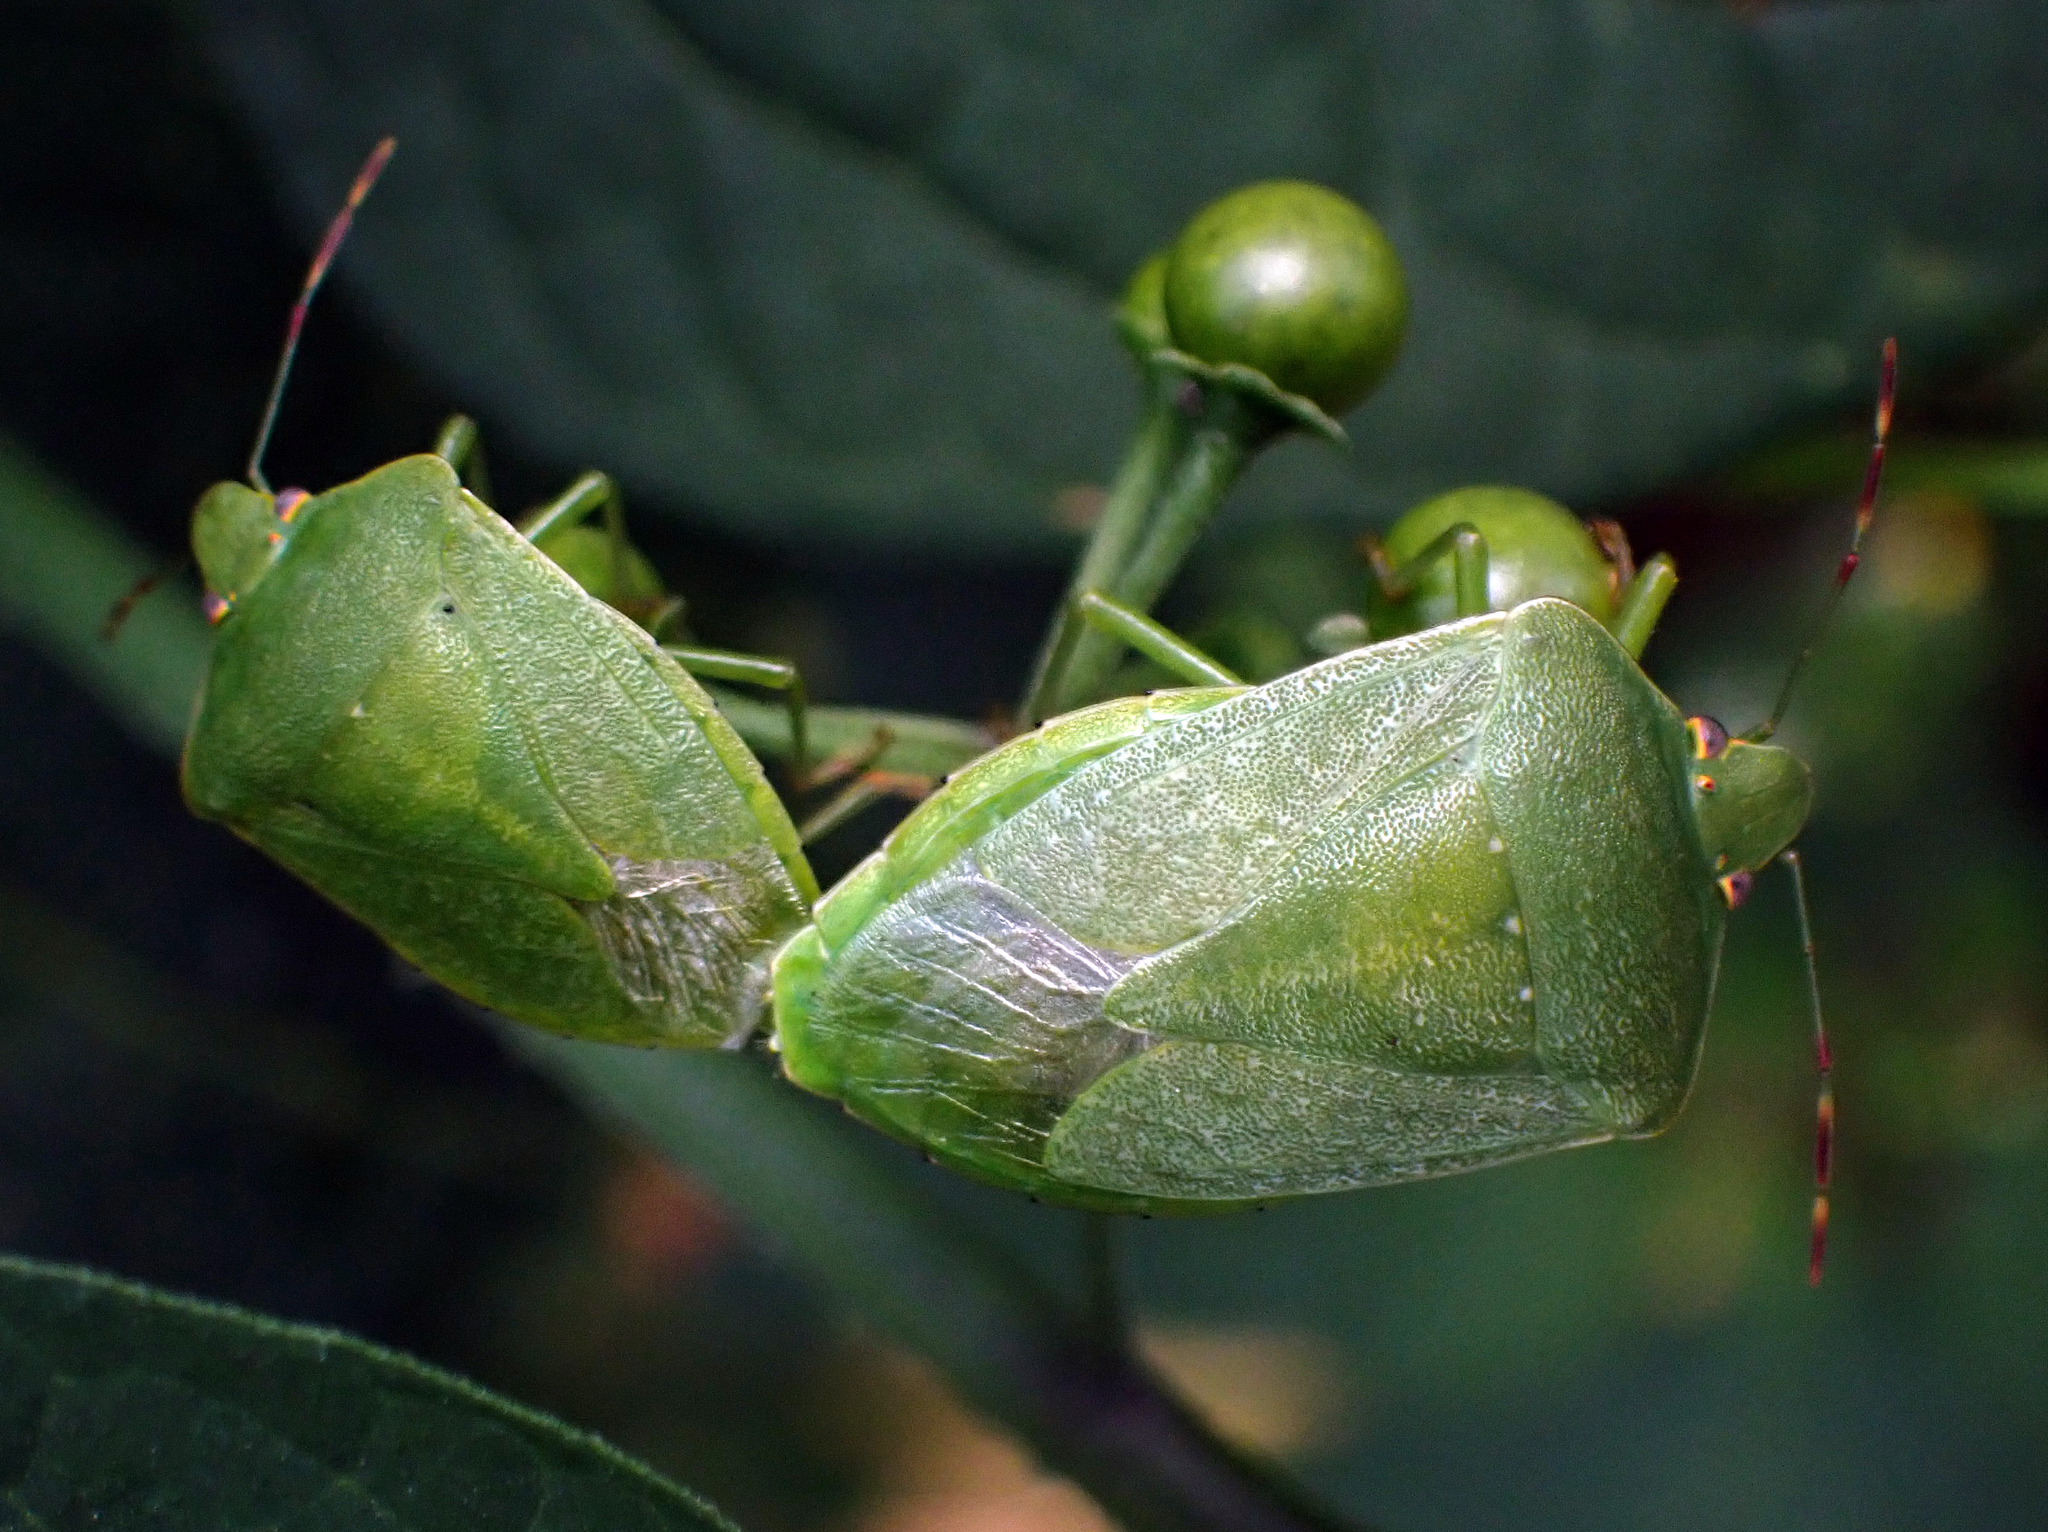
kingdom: Animalia
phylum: Arthropoda
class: Insecta
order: Hemiptera
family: Pentatomidae
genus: Nezara
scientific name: Nezara viridula
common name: Southern green stink bug
